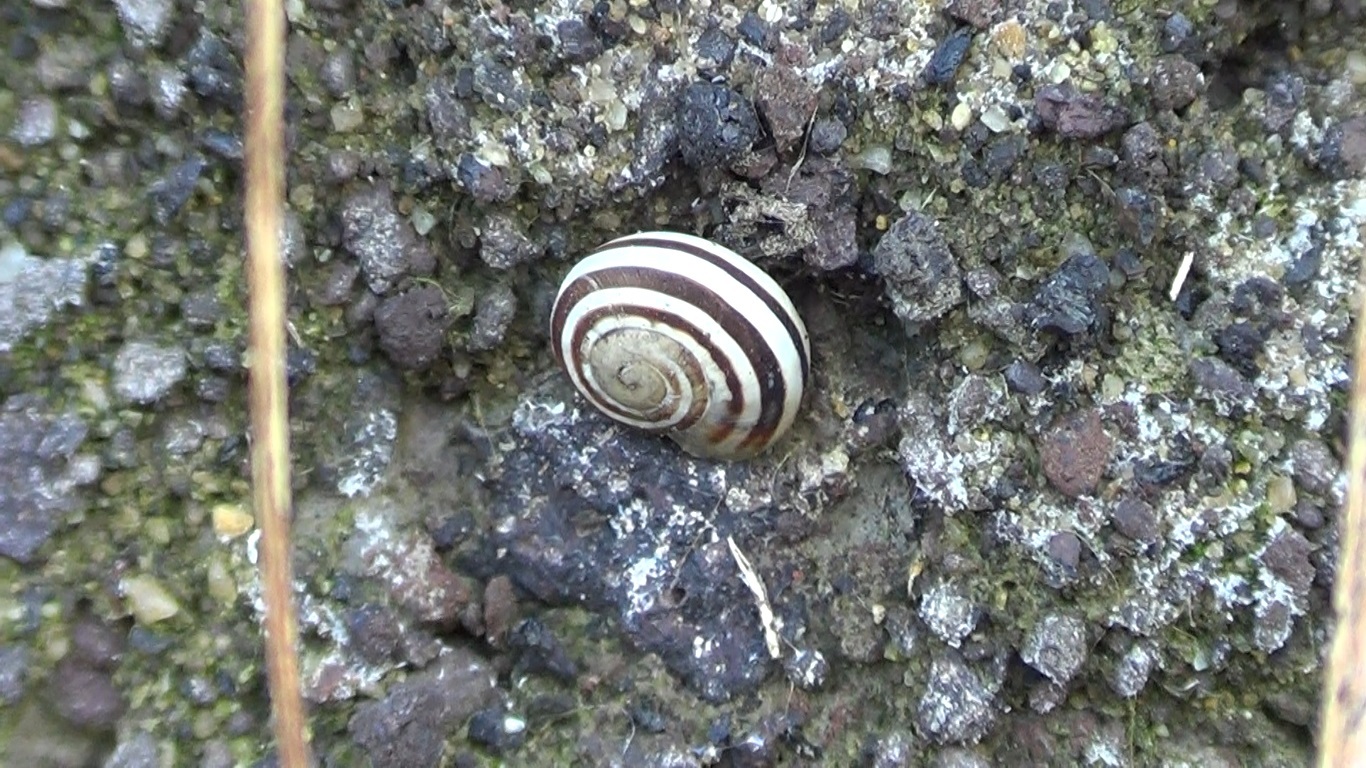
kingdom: Animalia
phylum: Mollusca
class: Gastropoda
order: Stylommatophora
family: Helicidae
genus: Eobania
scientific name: Eobania vermiculata
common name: Chocolateband snail
